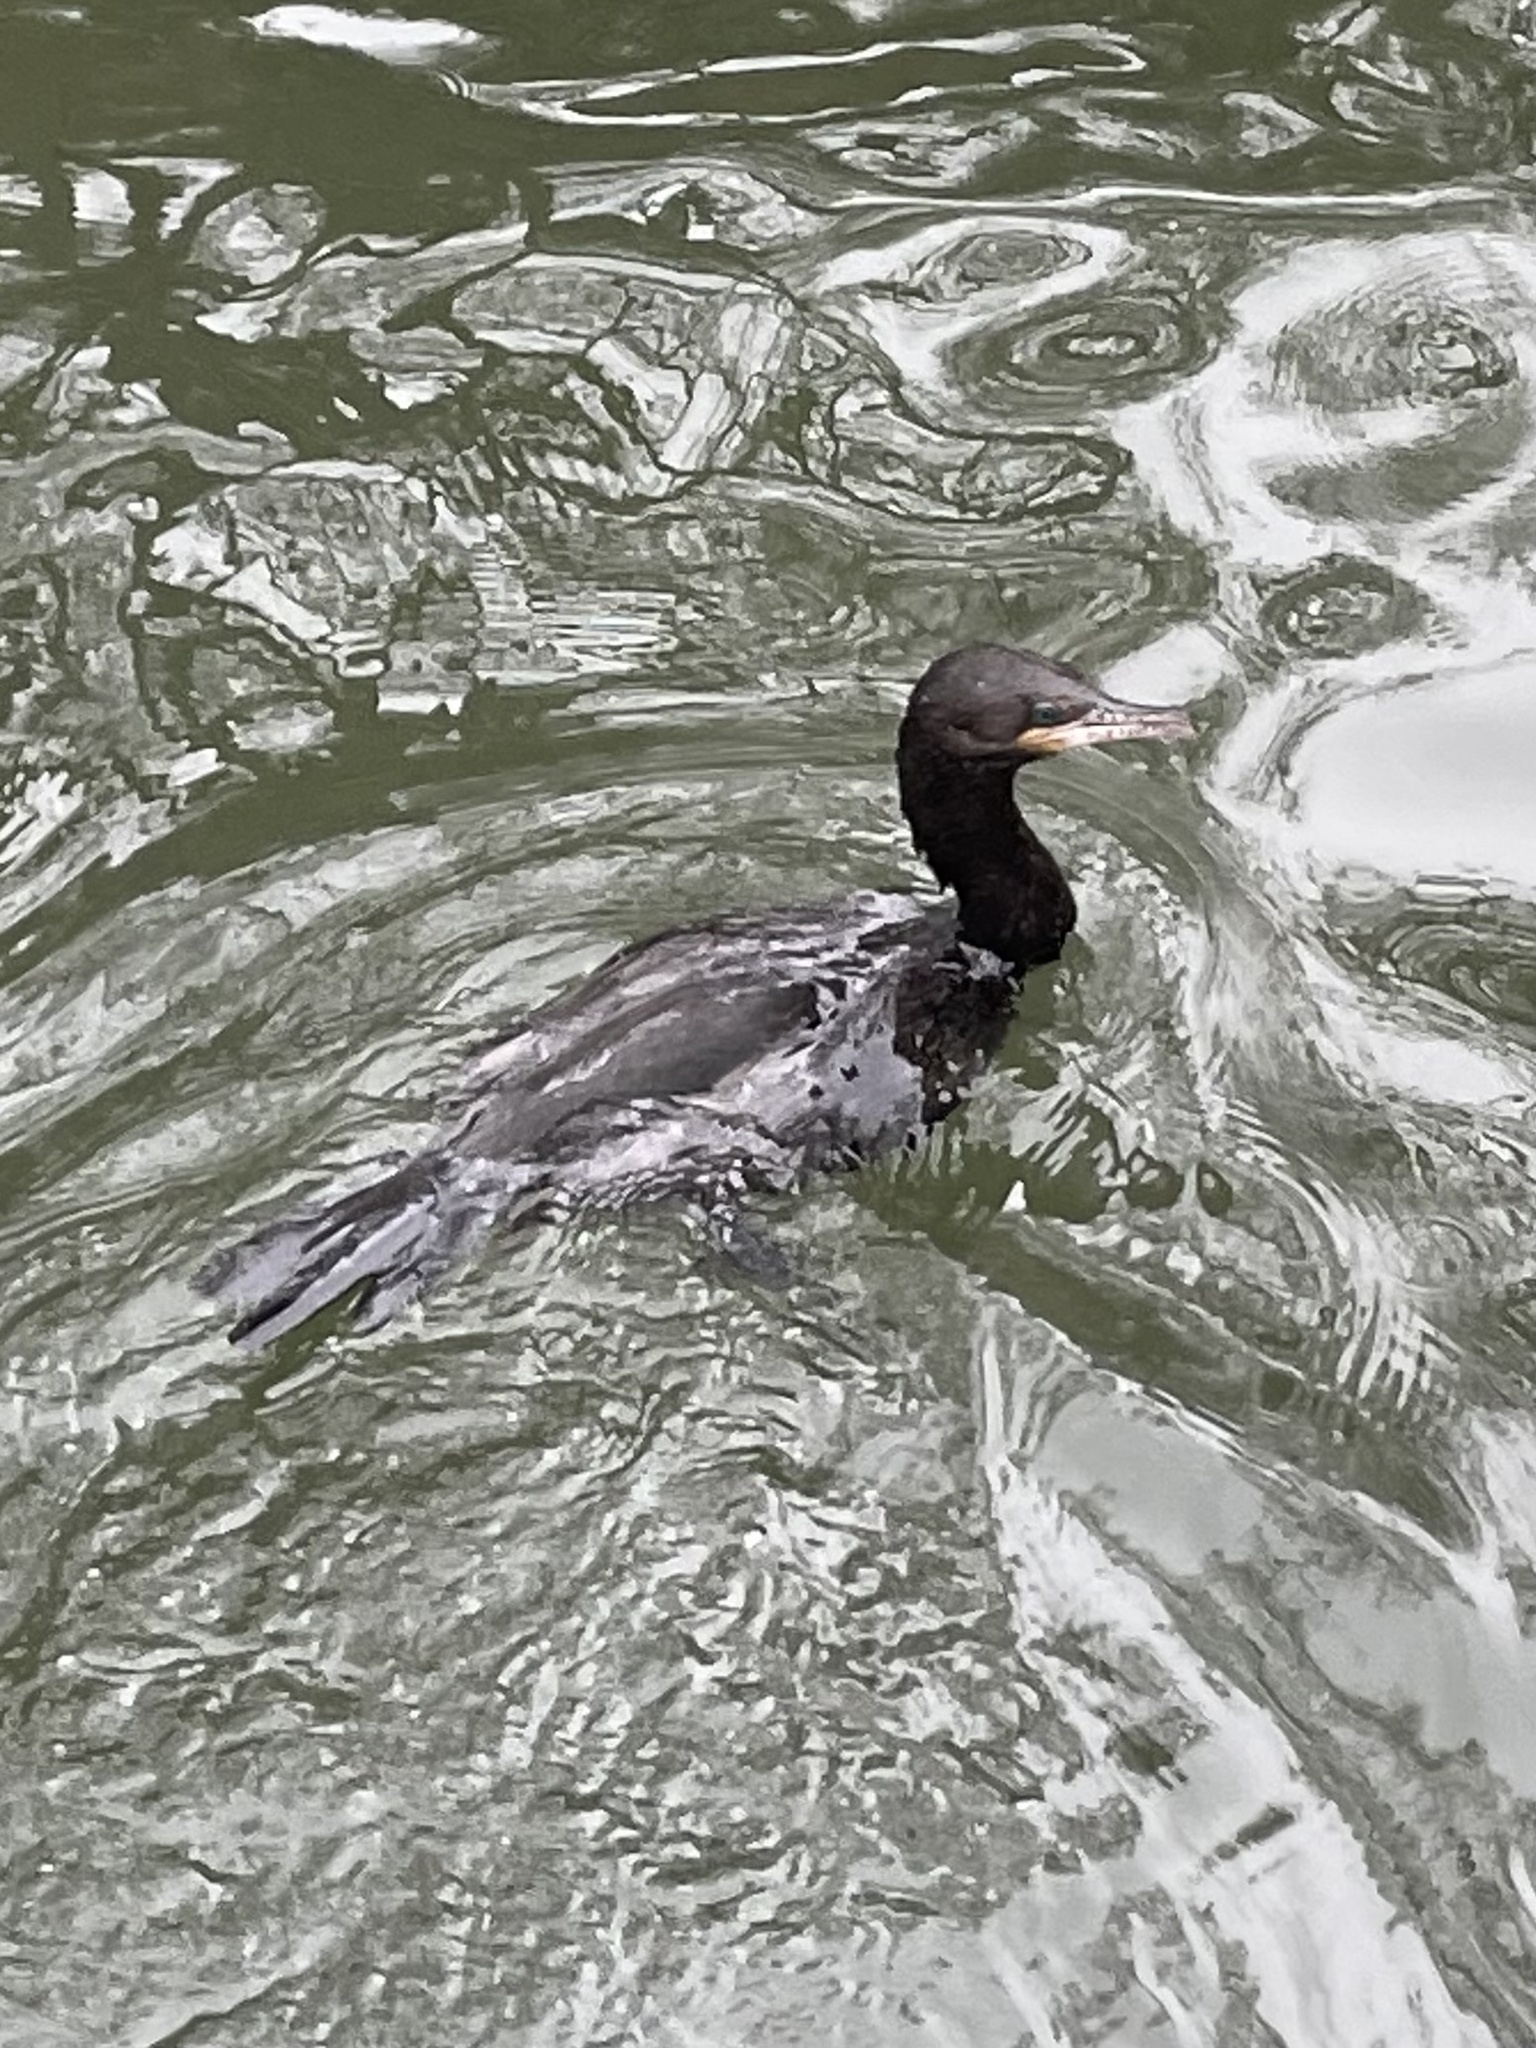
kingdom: Animalia
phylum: Chordata
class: Aves
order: Suliformes
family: Phalacrocoracidae
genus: Phalacrocorax
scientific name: Phalacrocorax brasilianus
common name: Neotropic cormorant
